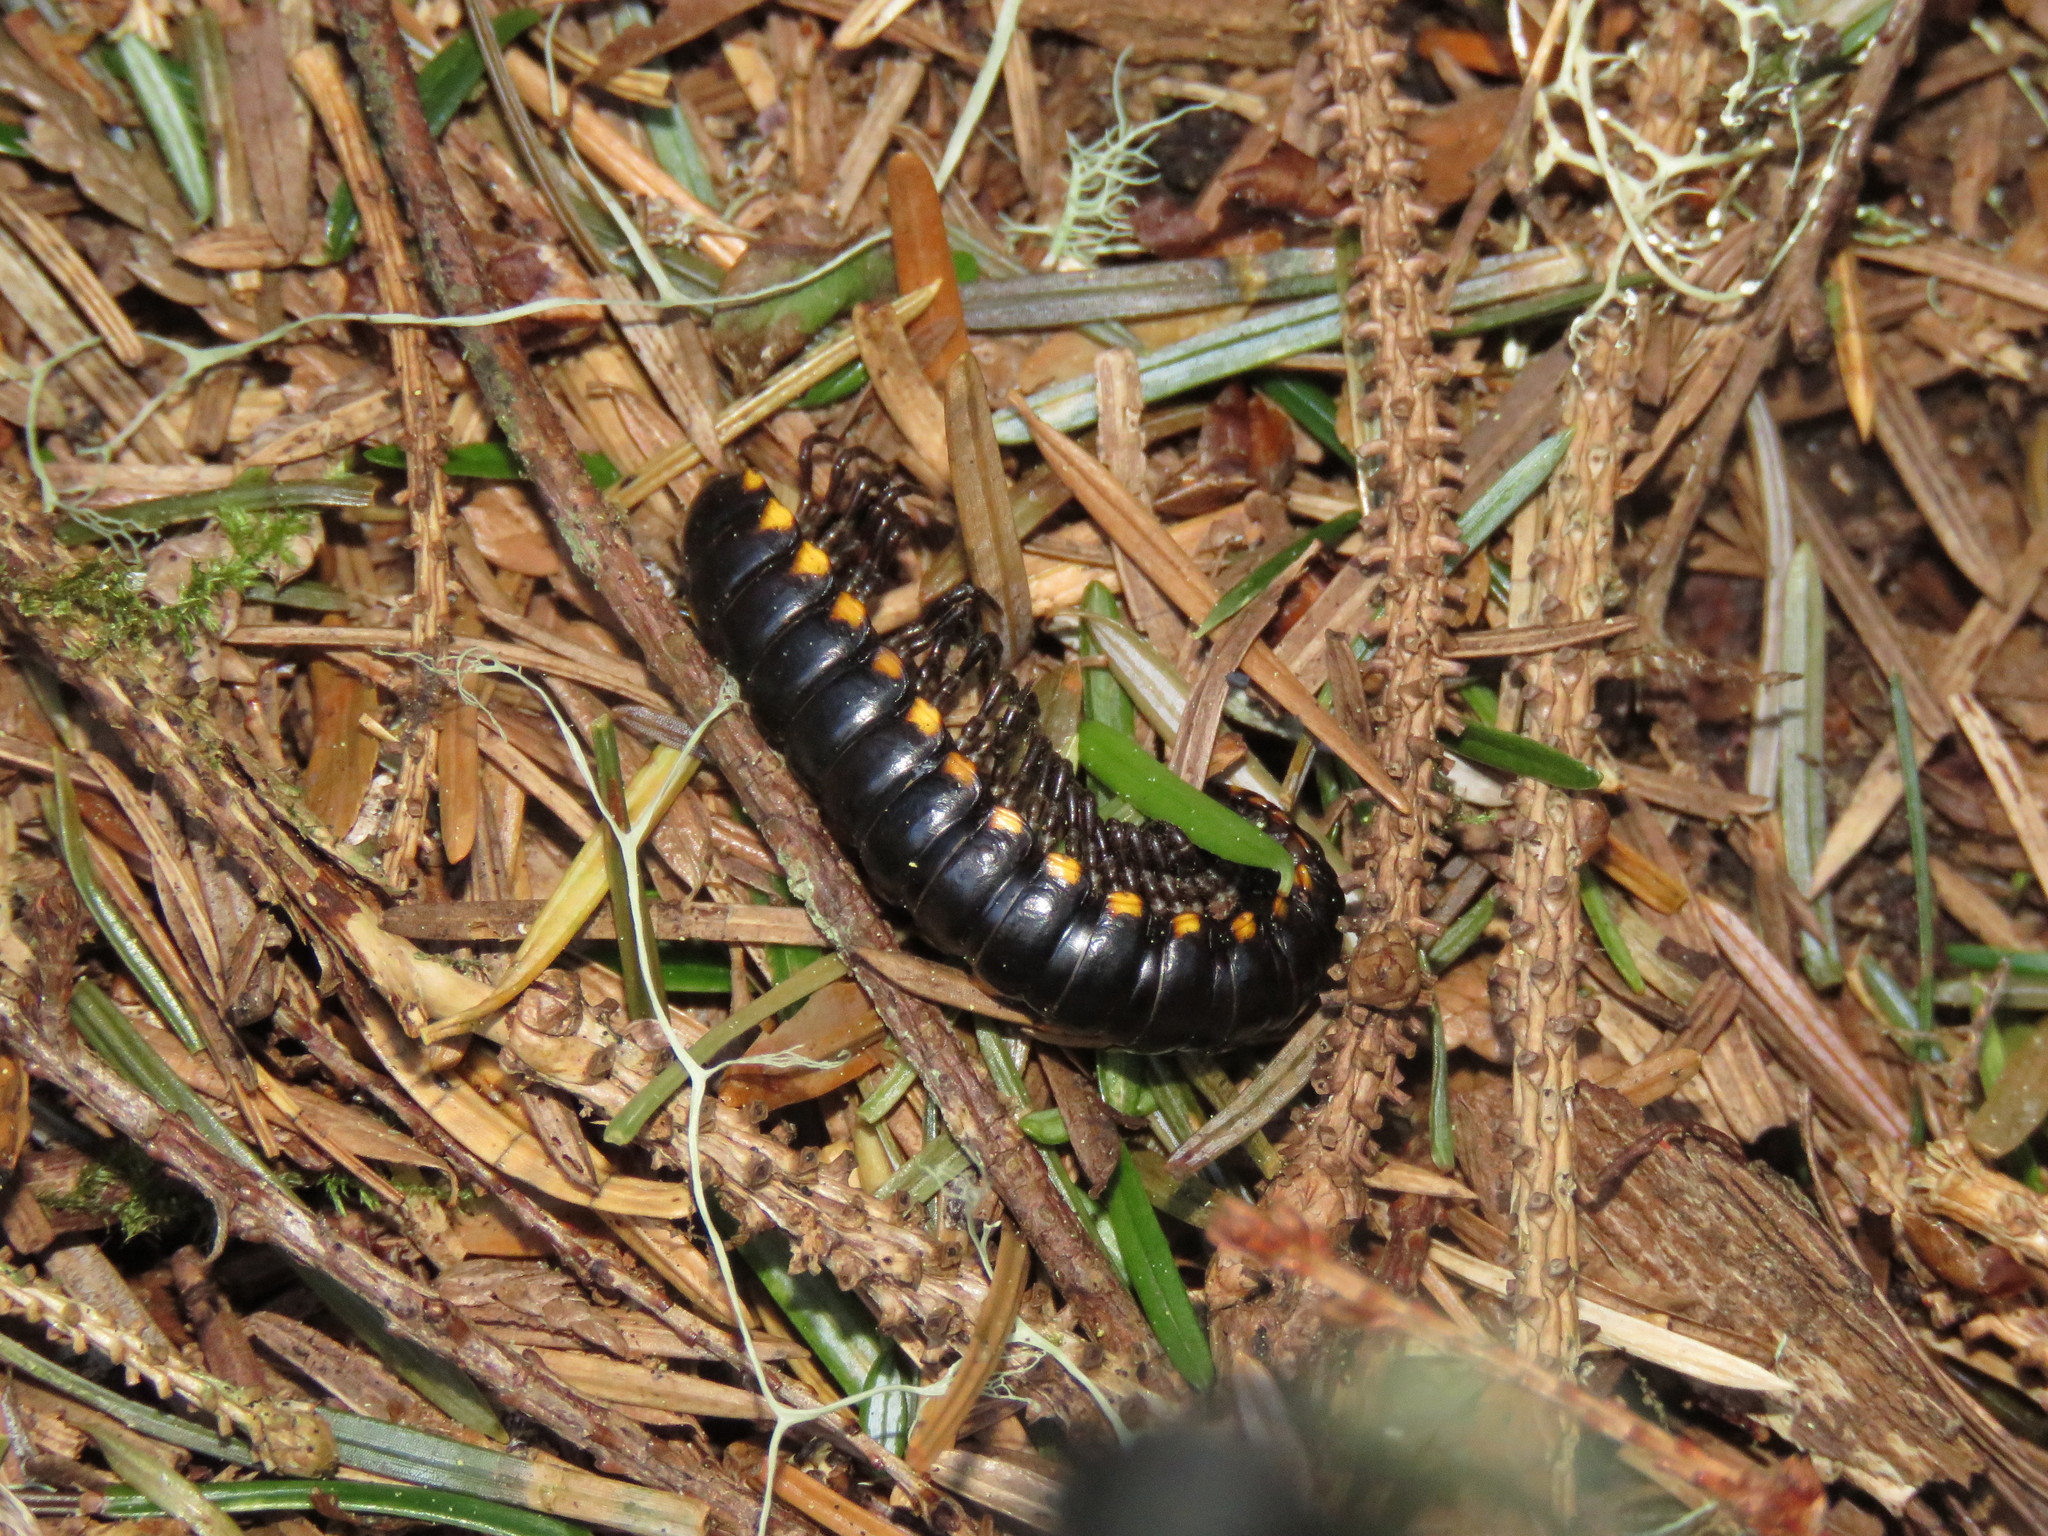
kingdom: Animalia
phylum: Arthropoda
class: Diplopoda
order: Polydesmida
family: Xystodesmidae
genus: Harpaphe
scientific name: Harpaphe haydeniana
